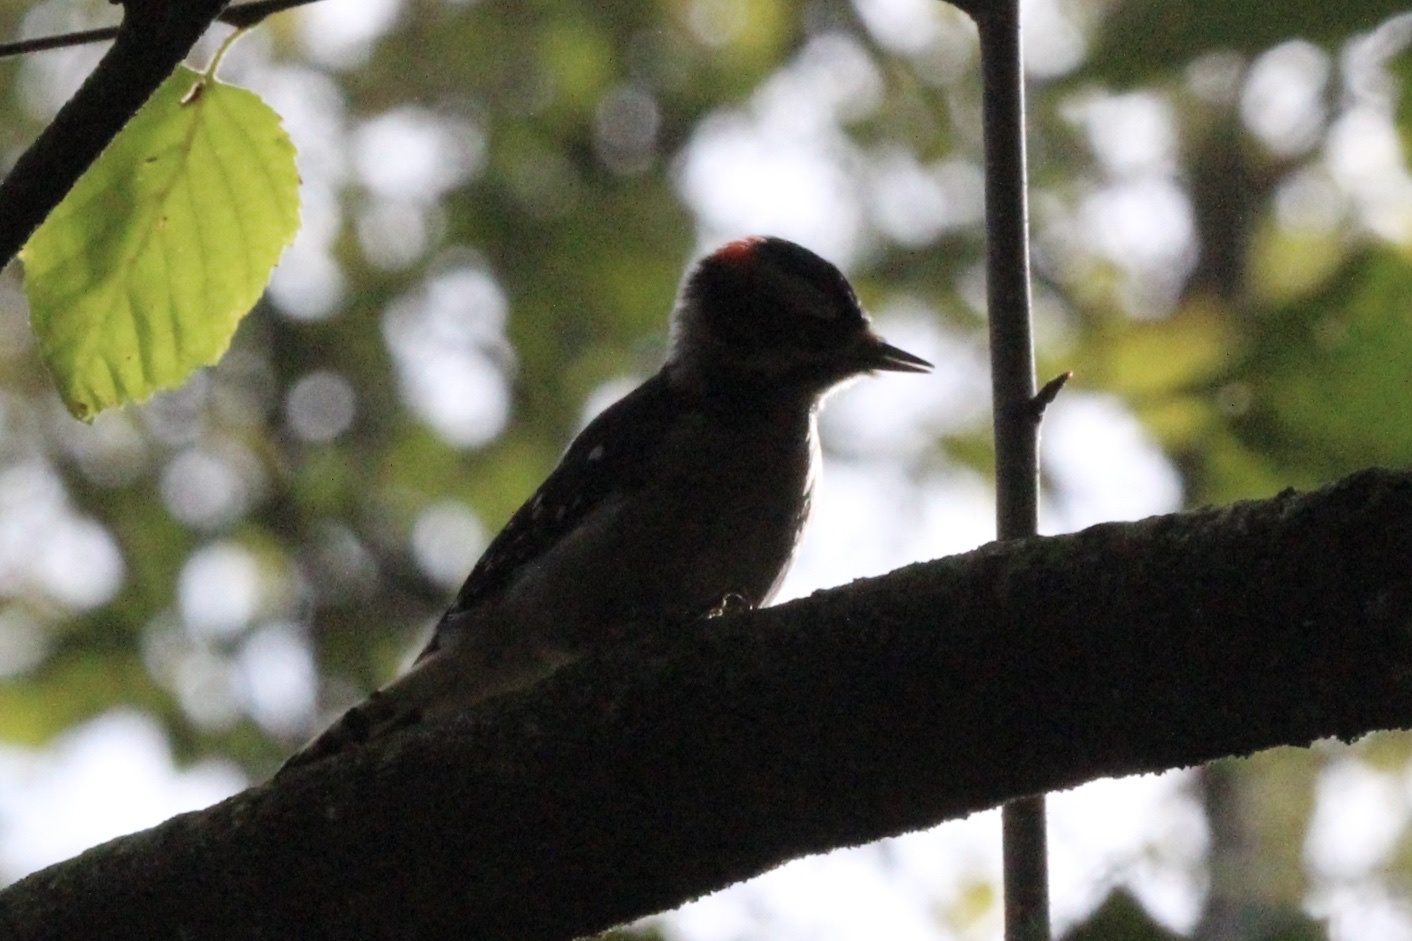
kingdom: Animalia
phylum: Chordata
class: Aves
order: Piciformes
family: Picidae
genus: Dryobates
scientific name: Dryobates pubescens
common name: Downy woodpecker
